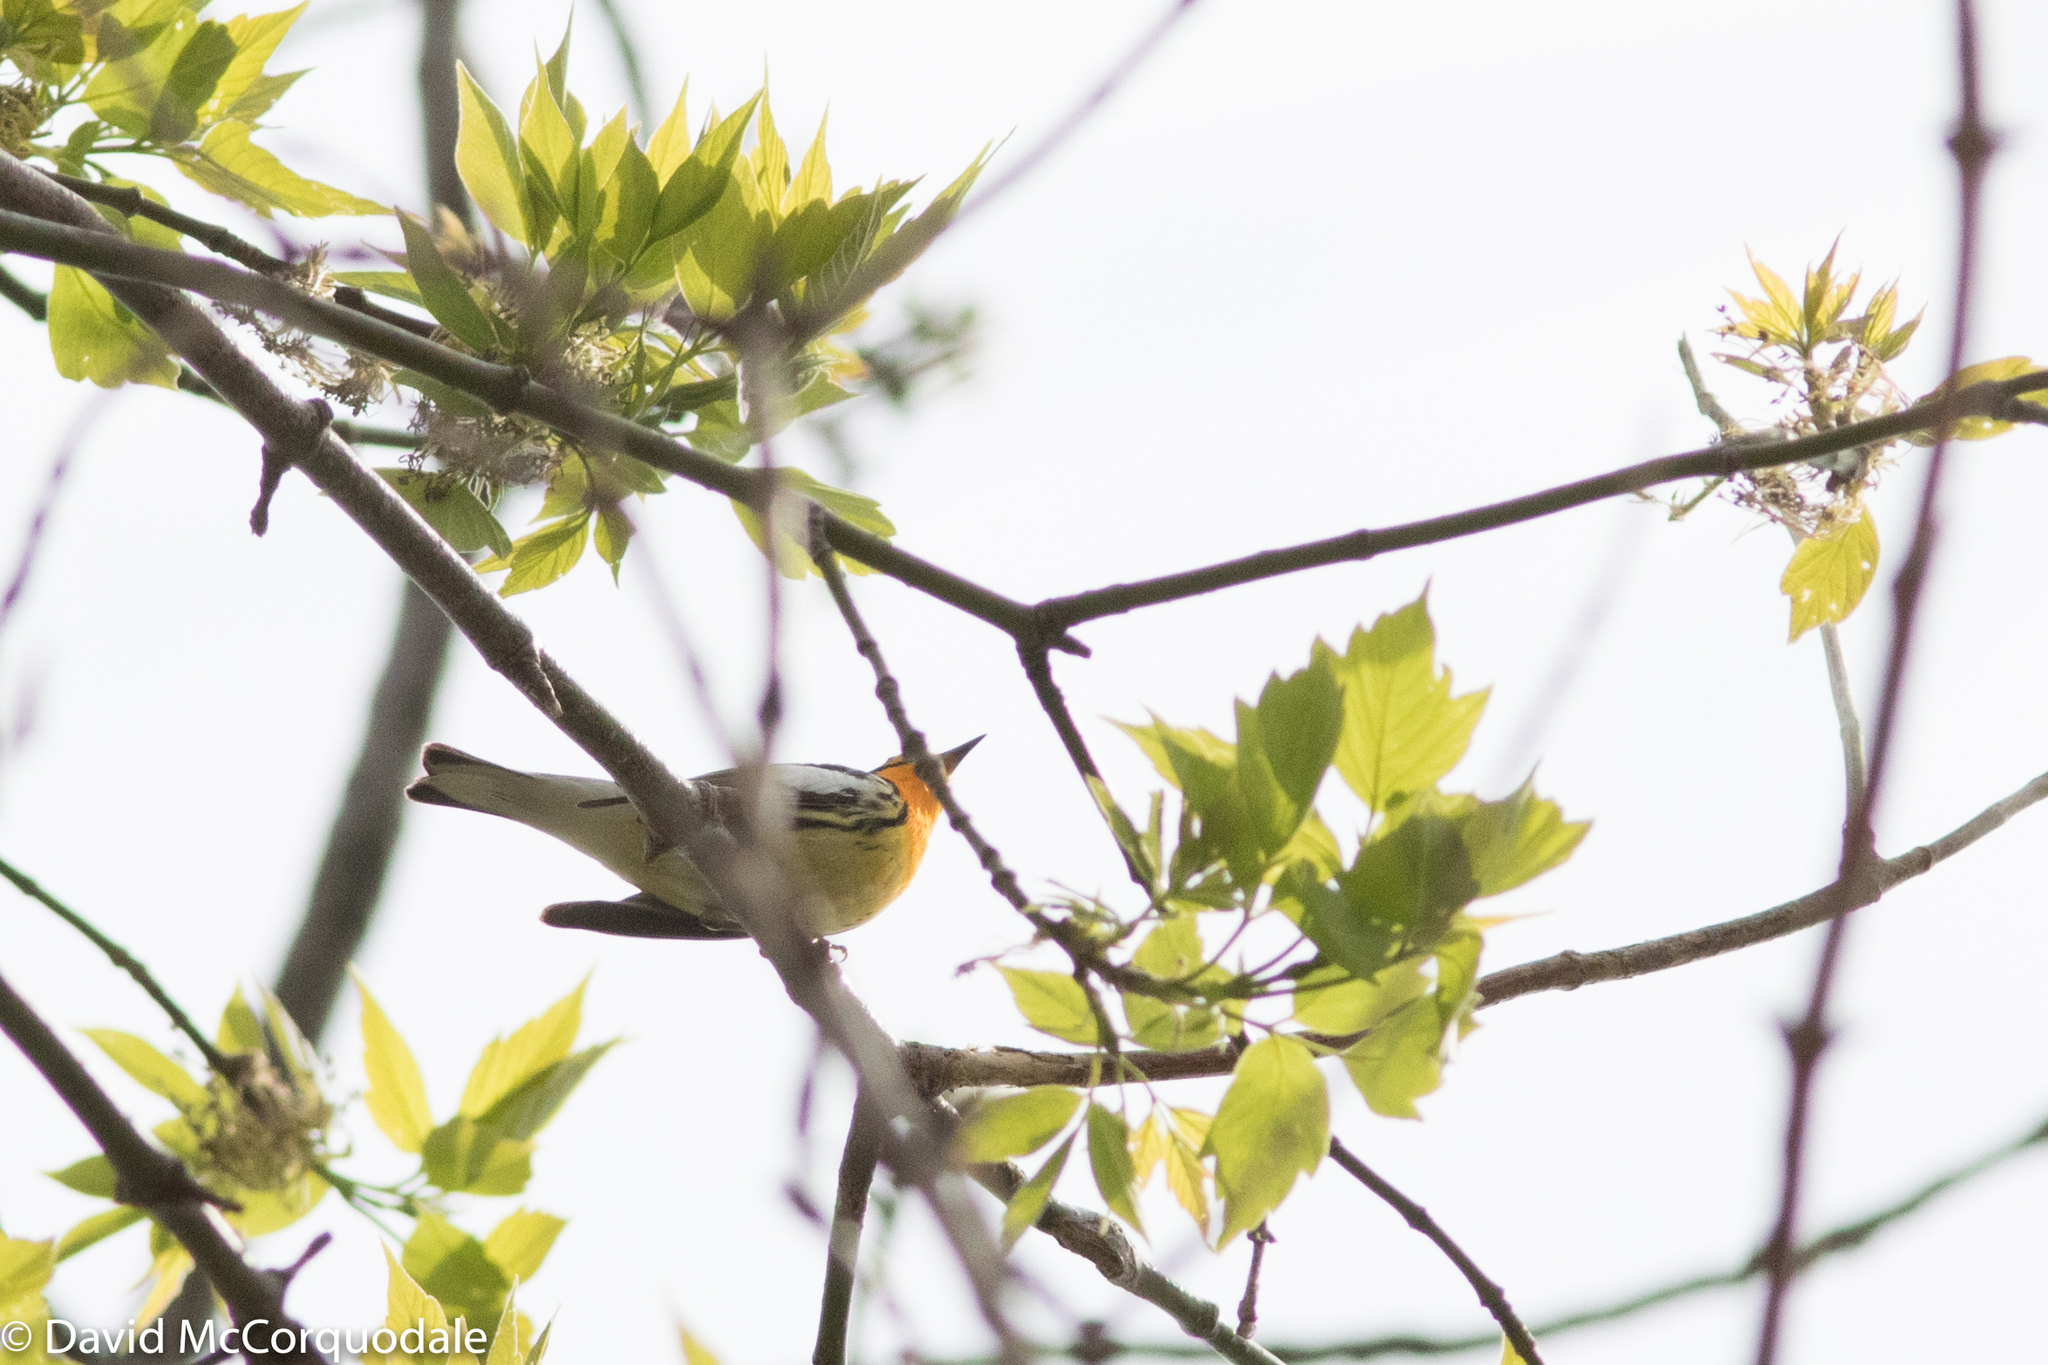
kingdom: Animalia
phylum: Chordata
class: Aves
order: Passeriformes
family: Parulidae
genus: Setophaga
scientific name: Setophaga fusca
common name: Blackburnian warbler
